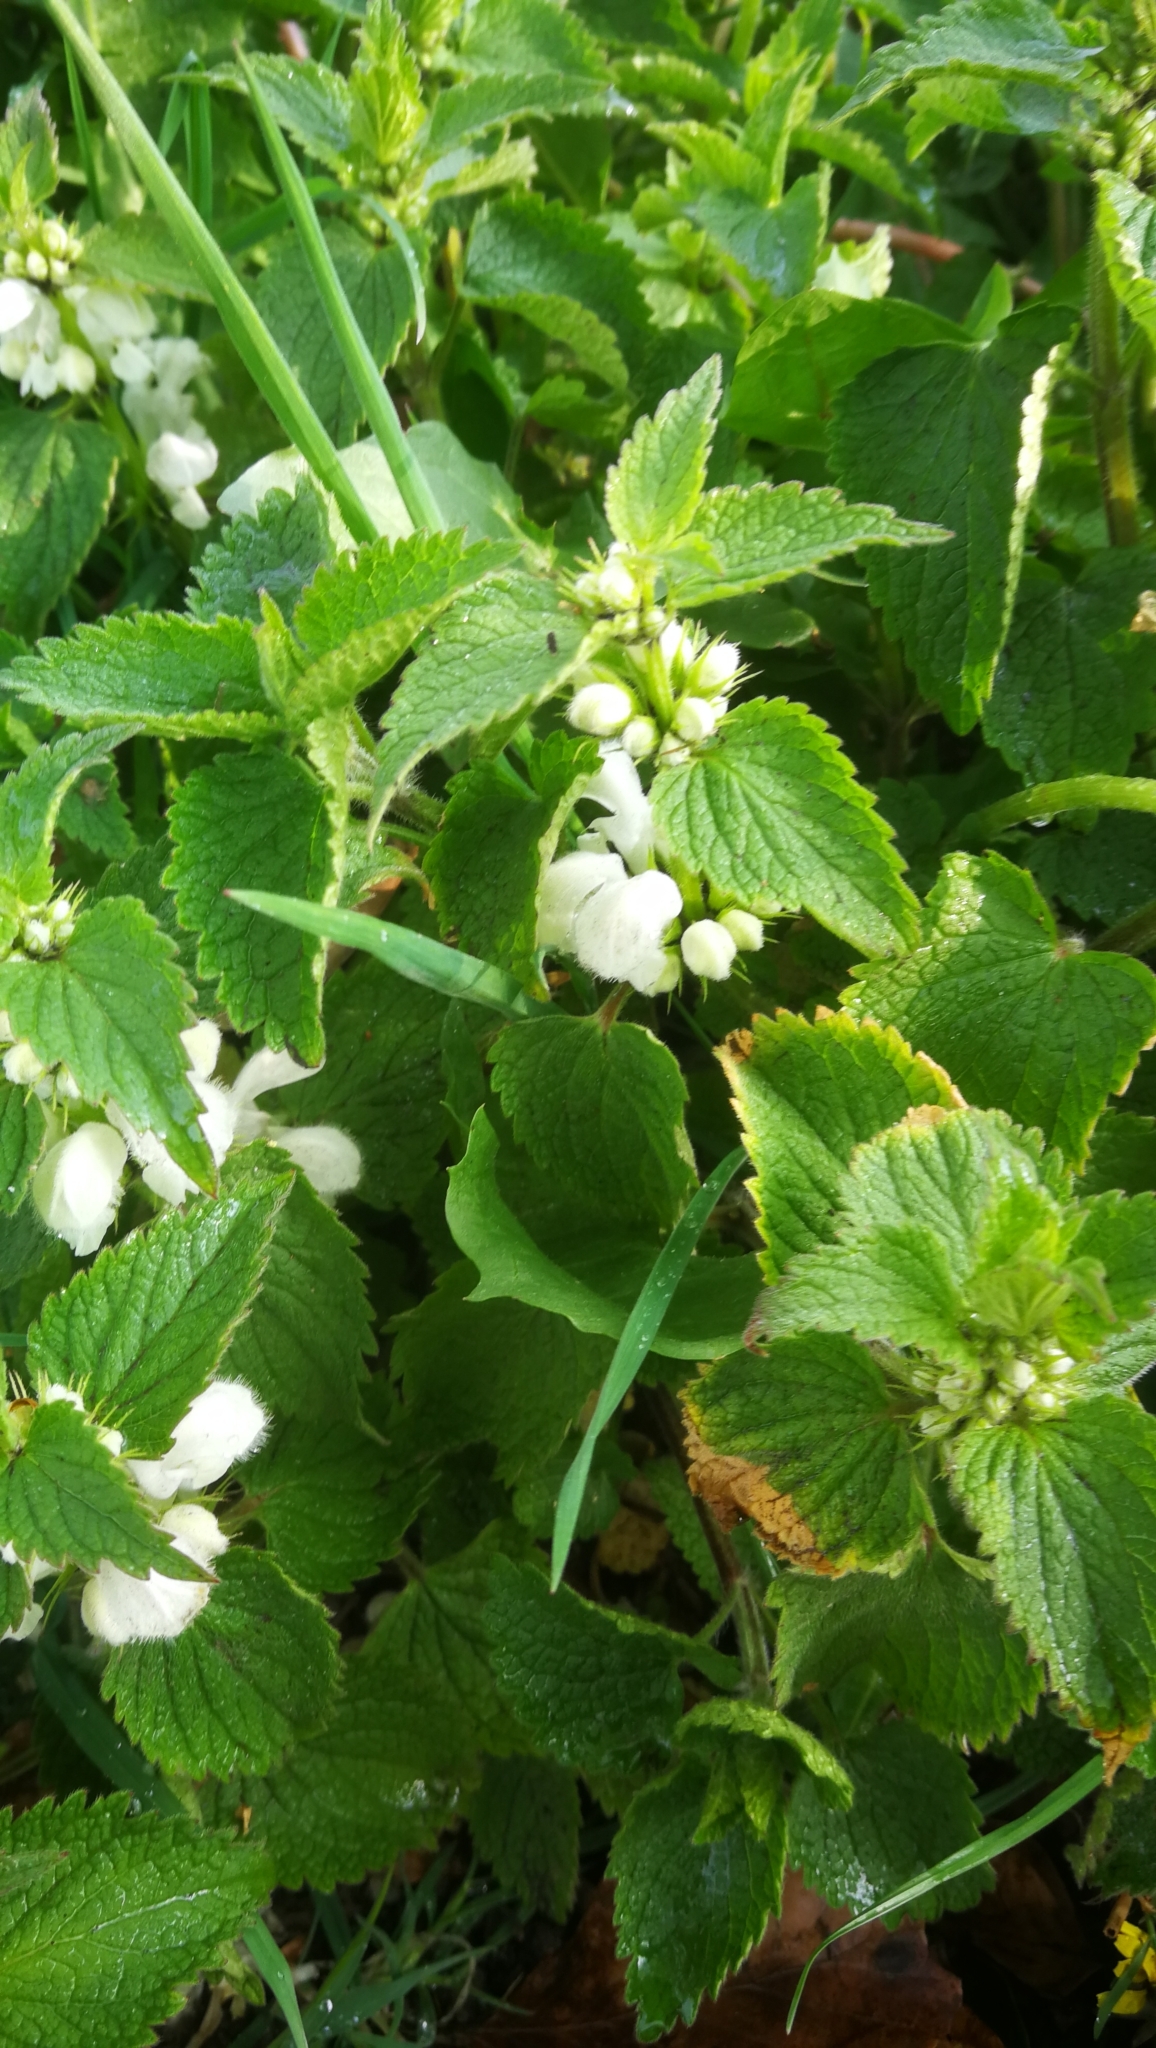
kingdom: Plantae
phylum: Tracheophyta
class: Magnoliopsida
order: Lamiales
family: Lamiaceae
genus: Lamium
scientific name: Lamium album
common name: White dead-nettle
